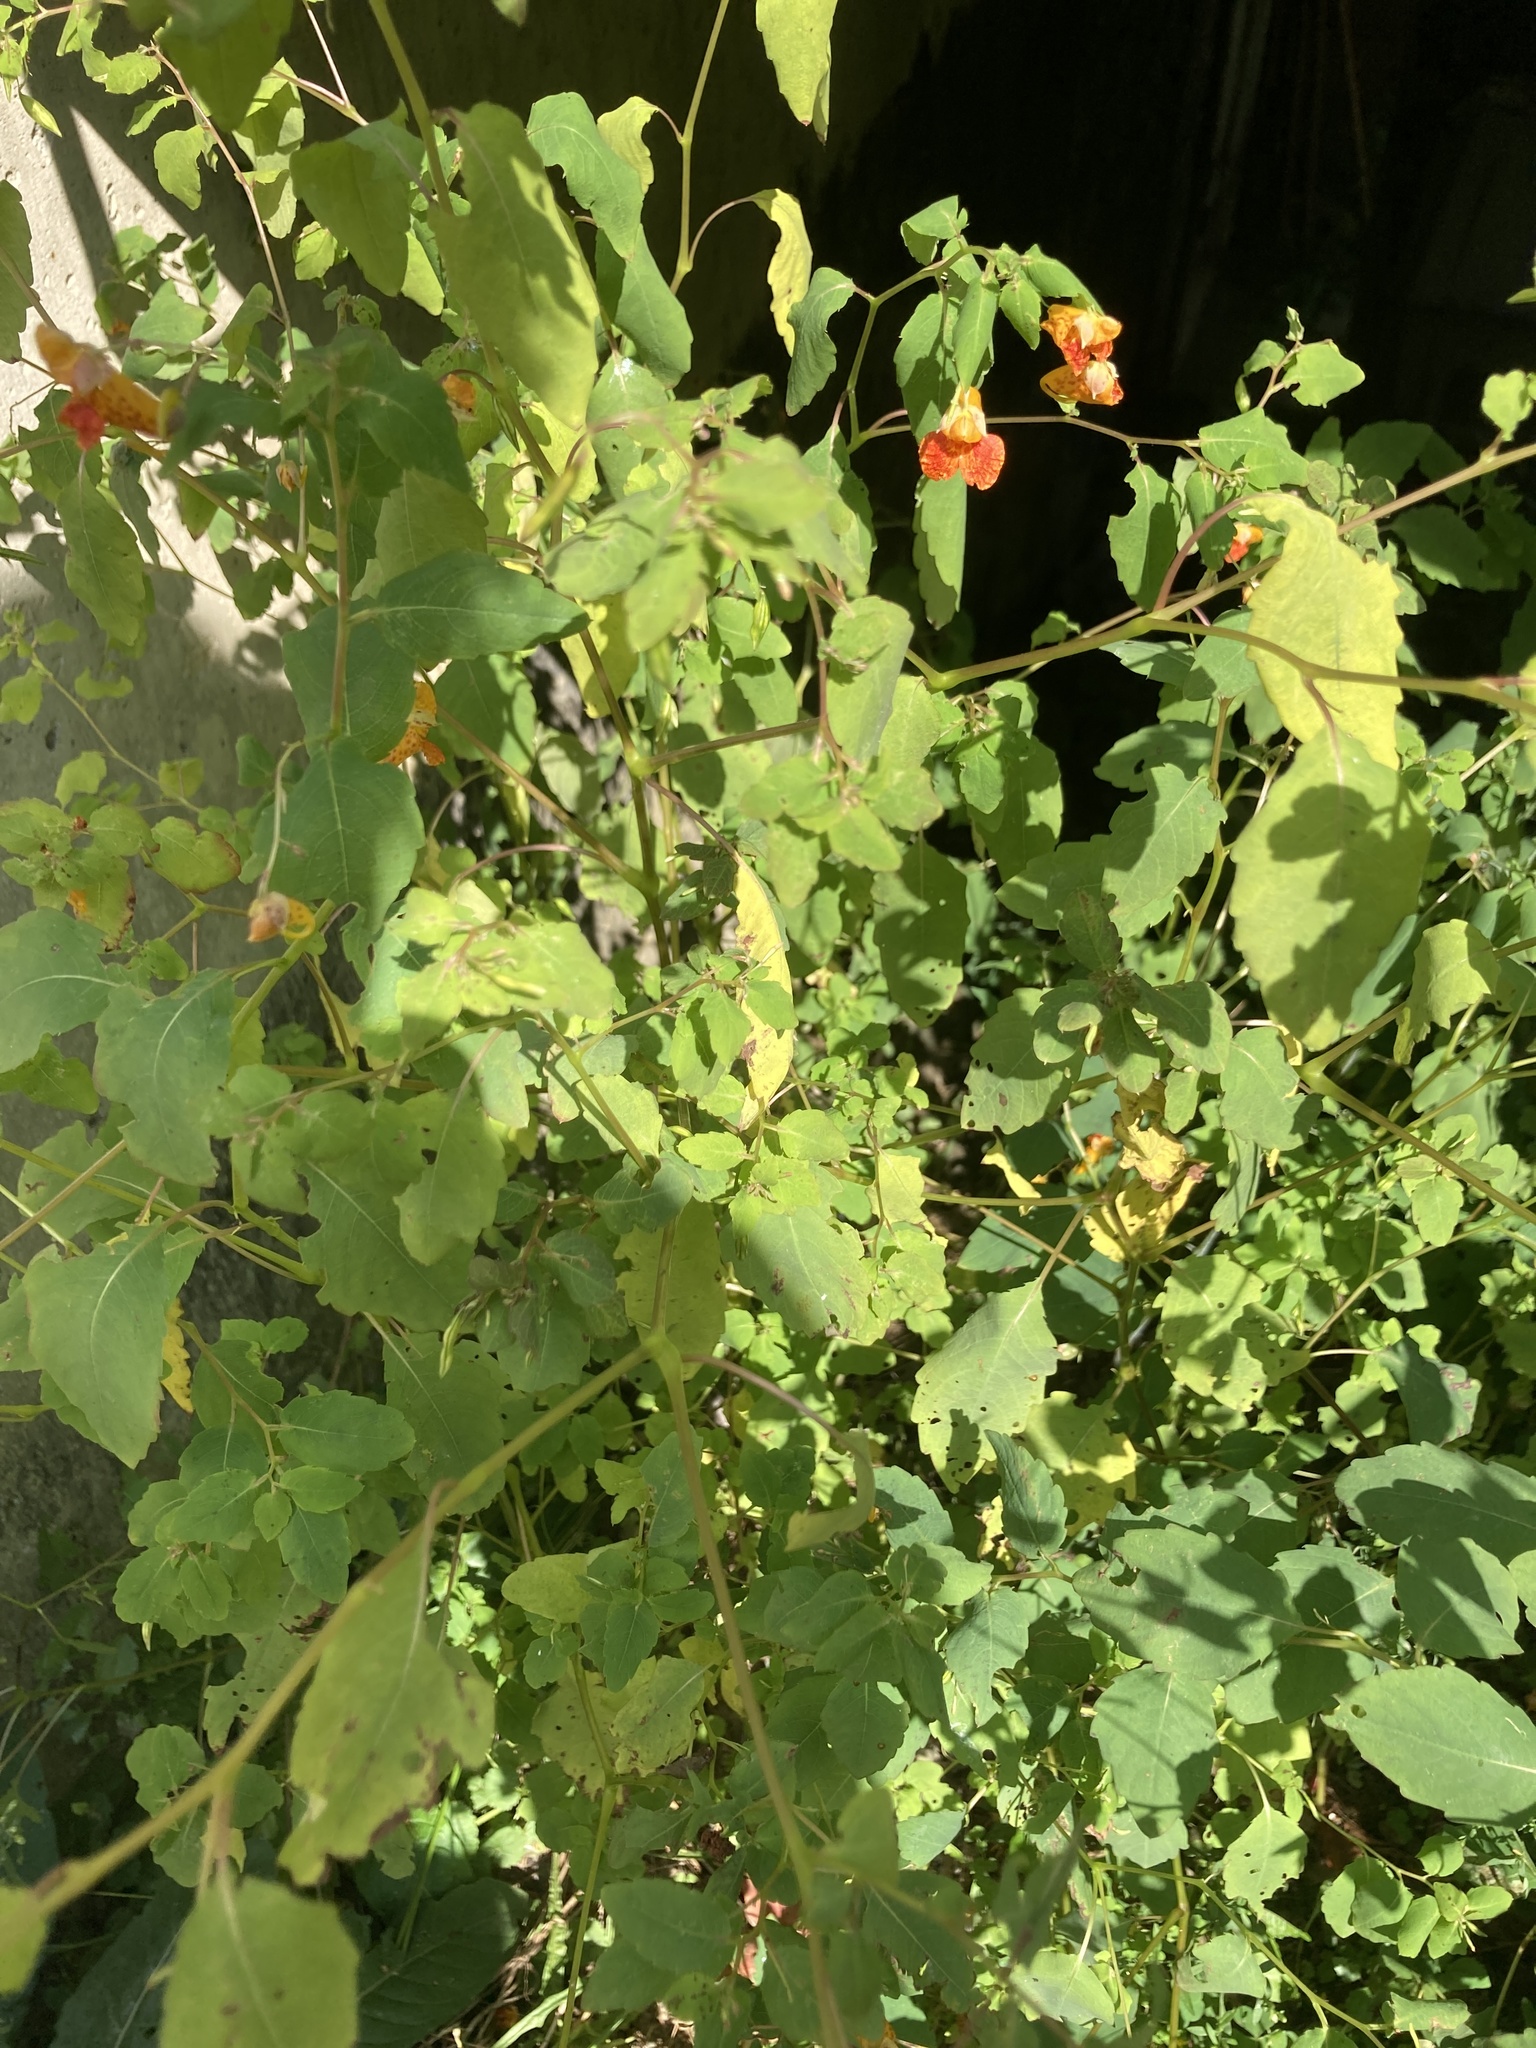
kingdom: Plantae
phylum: Tracheophyta
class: Magnoliopsida
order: Ericales
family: Balsaminaceae
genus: Impatiens
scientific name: Impatiens capensis
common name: Orange balsam
